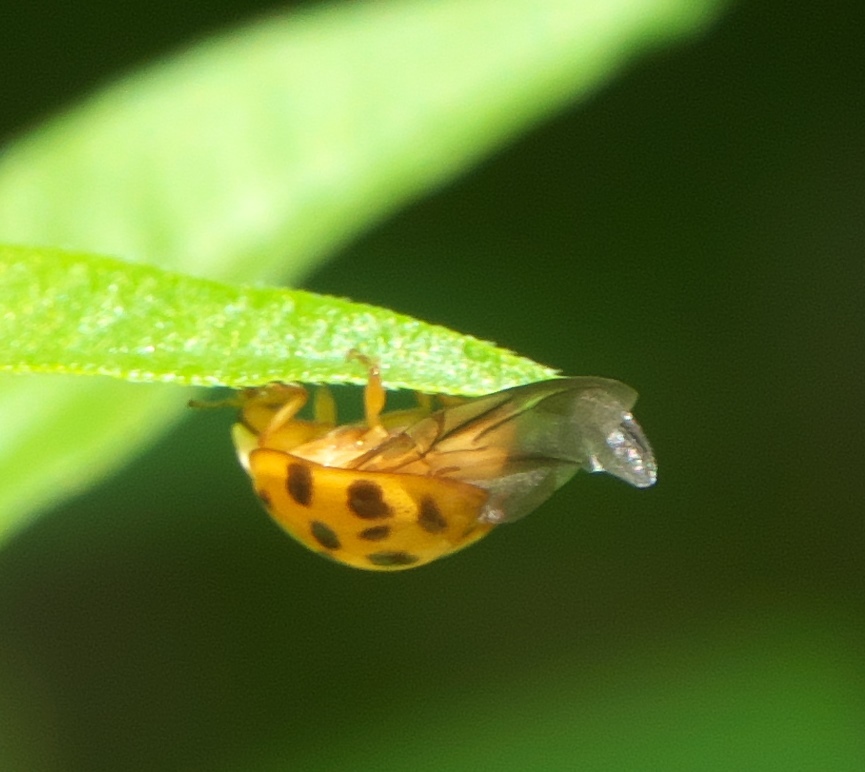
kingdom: Animalia
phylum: Arthropoda
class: Insecta
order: Coleoptera
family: Coccinellidae
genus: Harmonia
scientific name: Harmonia axyridis
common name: Harlequin ladybird
